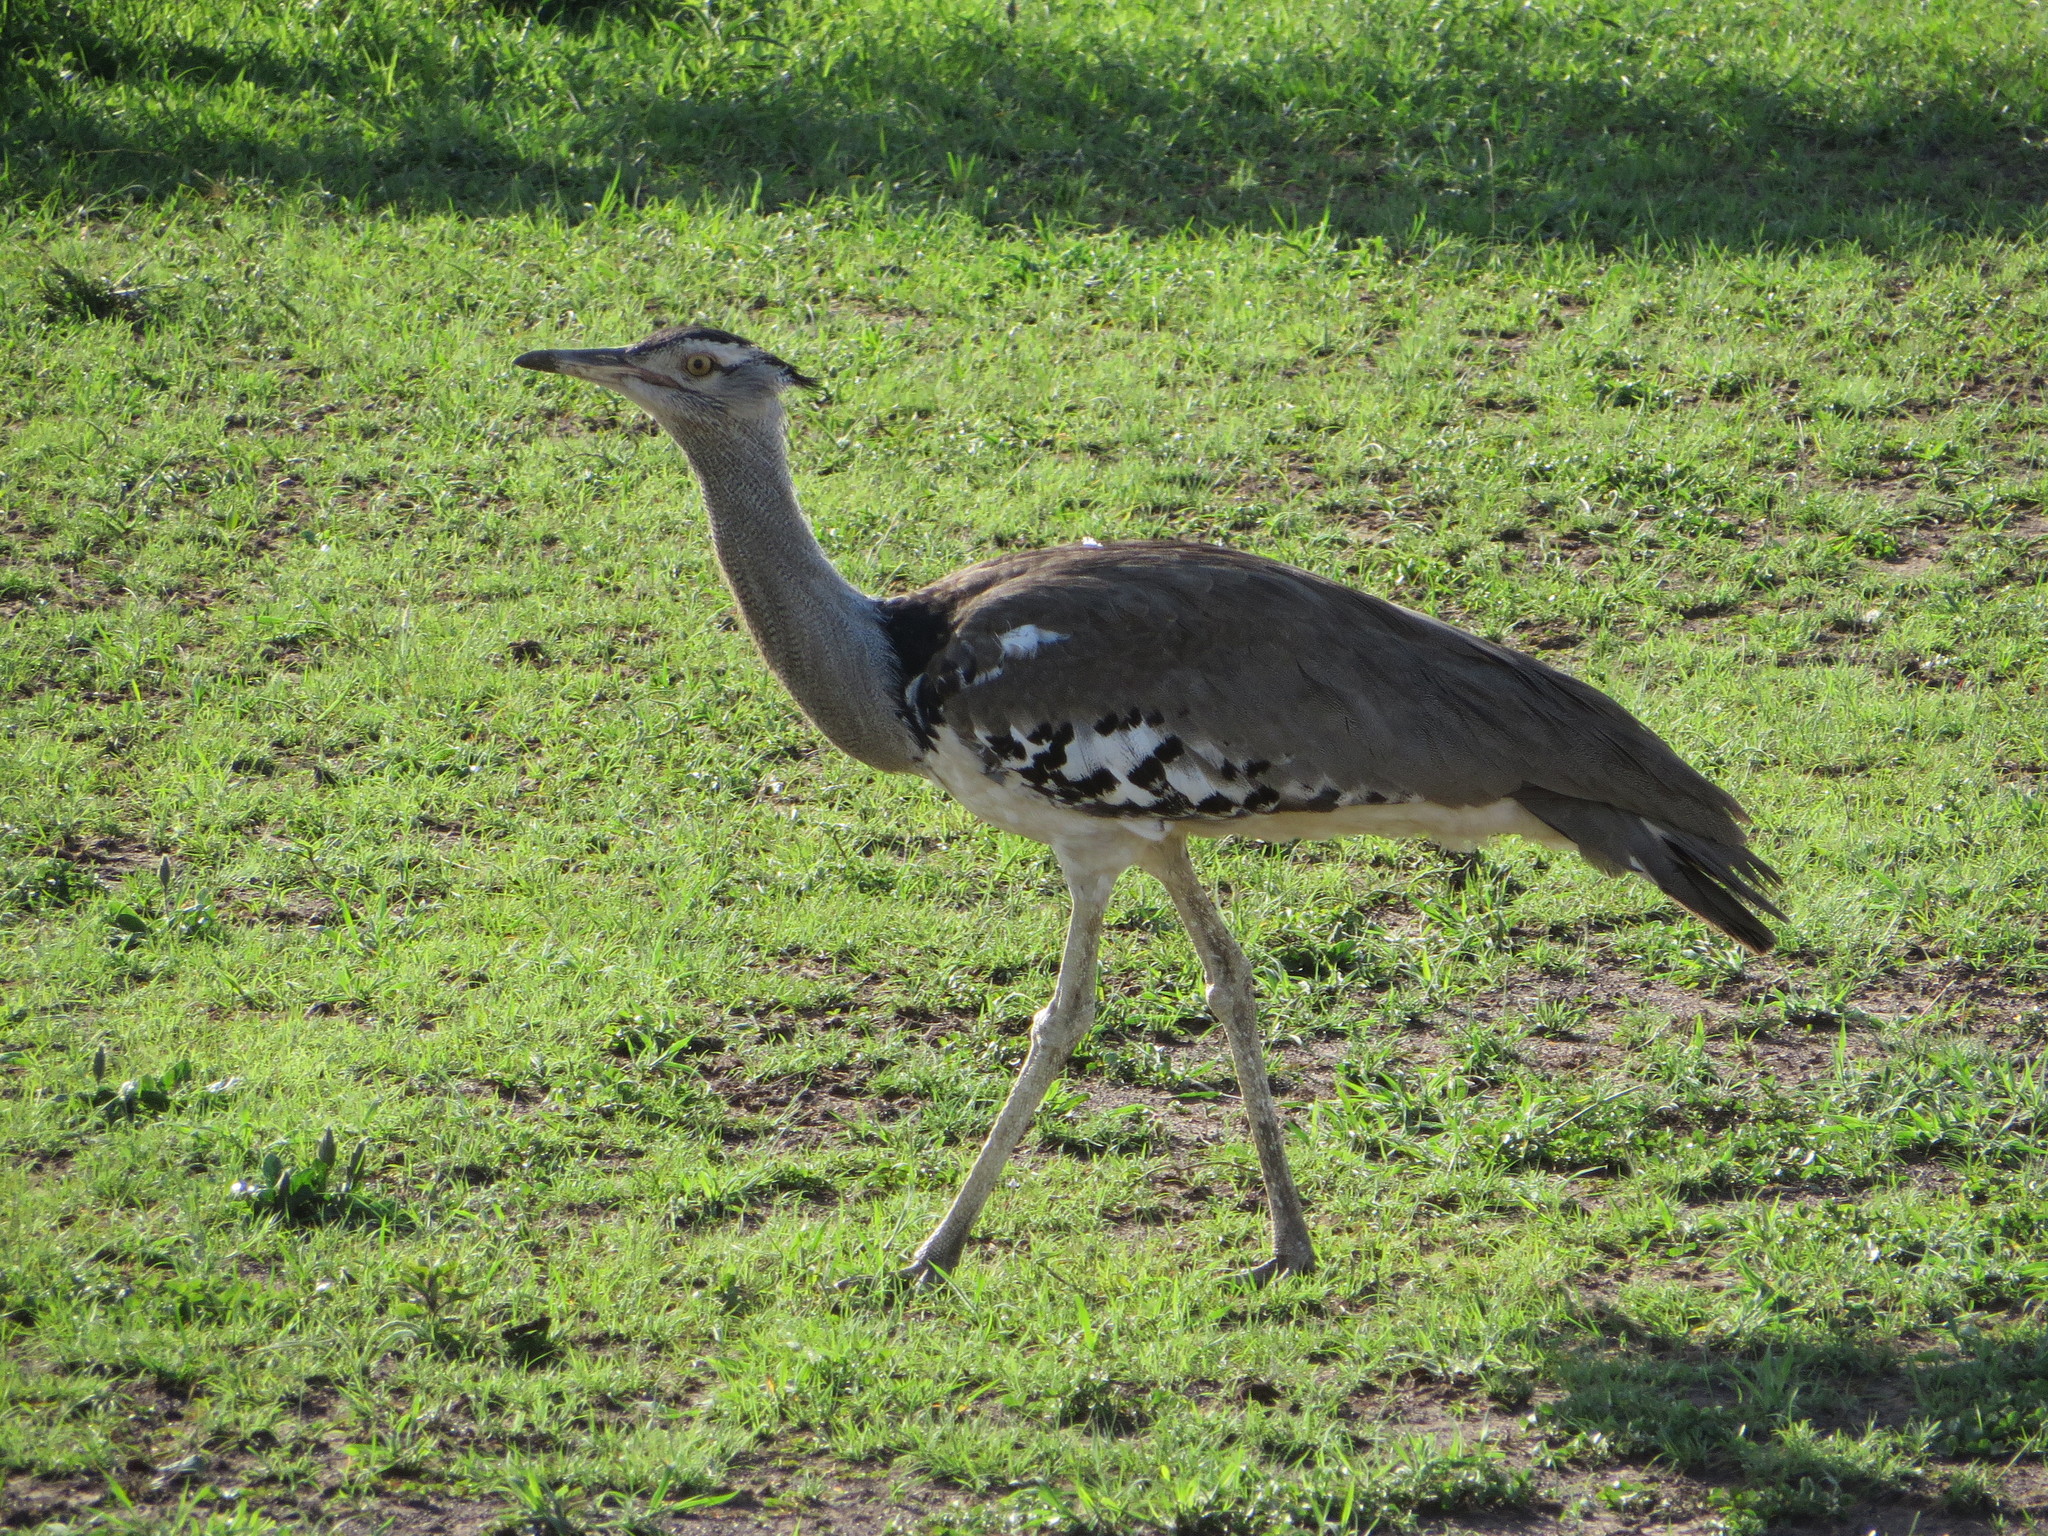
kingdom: Animalia
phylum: Chordata
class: Aves
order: Otidiformes
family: Otididae
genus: Ardeotis
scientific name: Ardeotis kori
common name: Kori bustard
